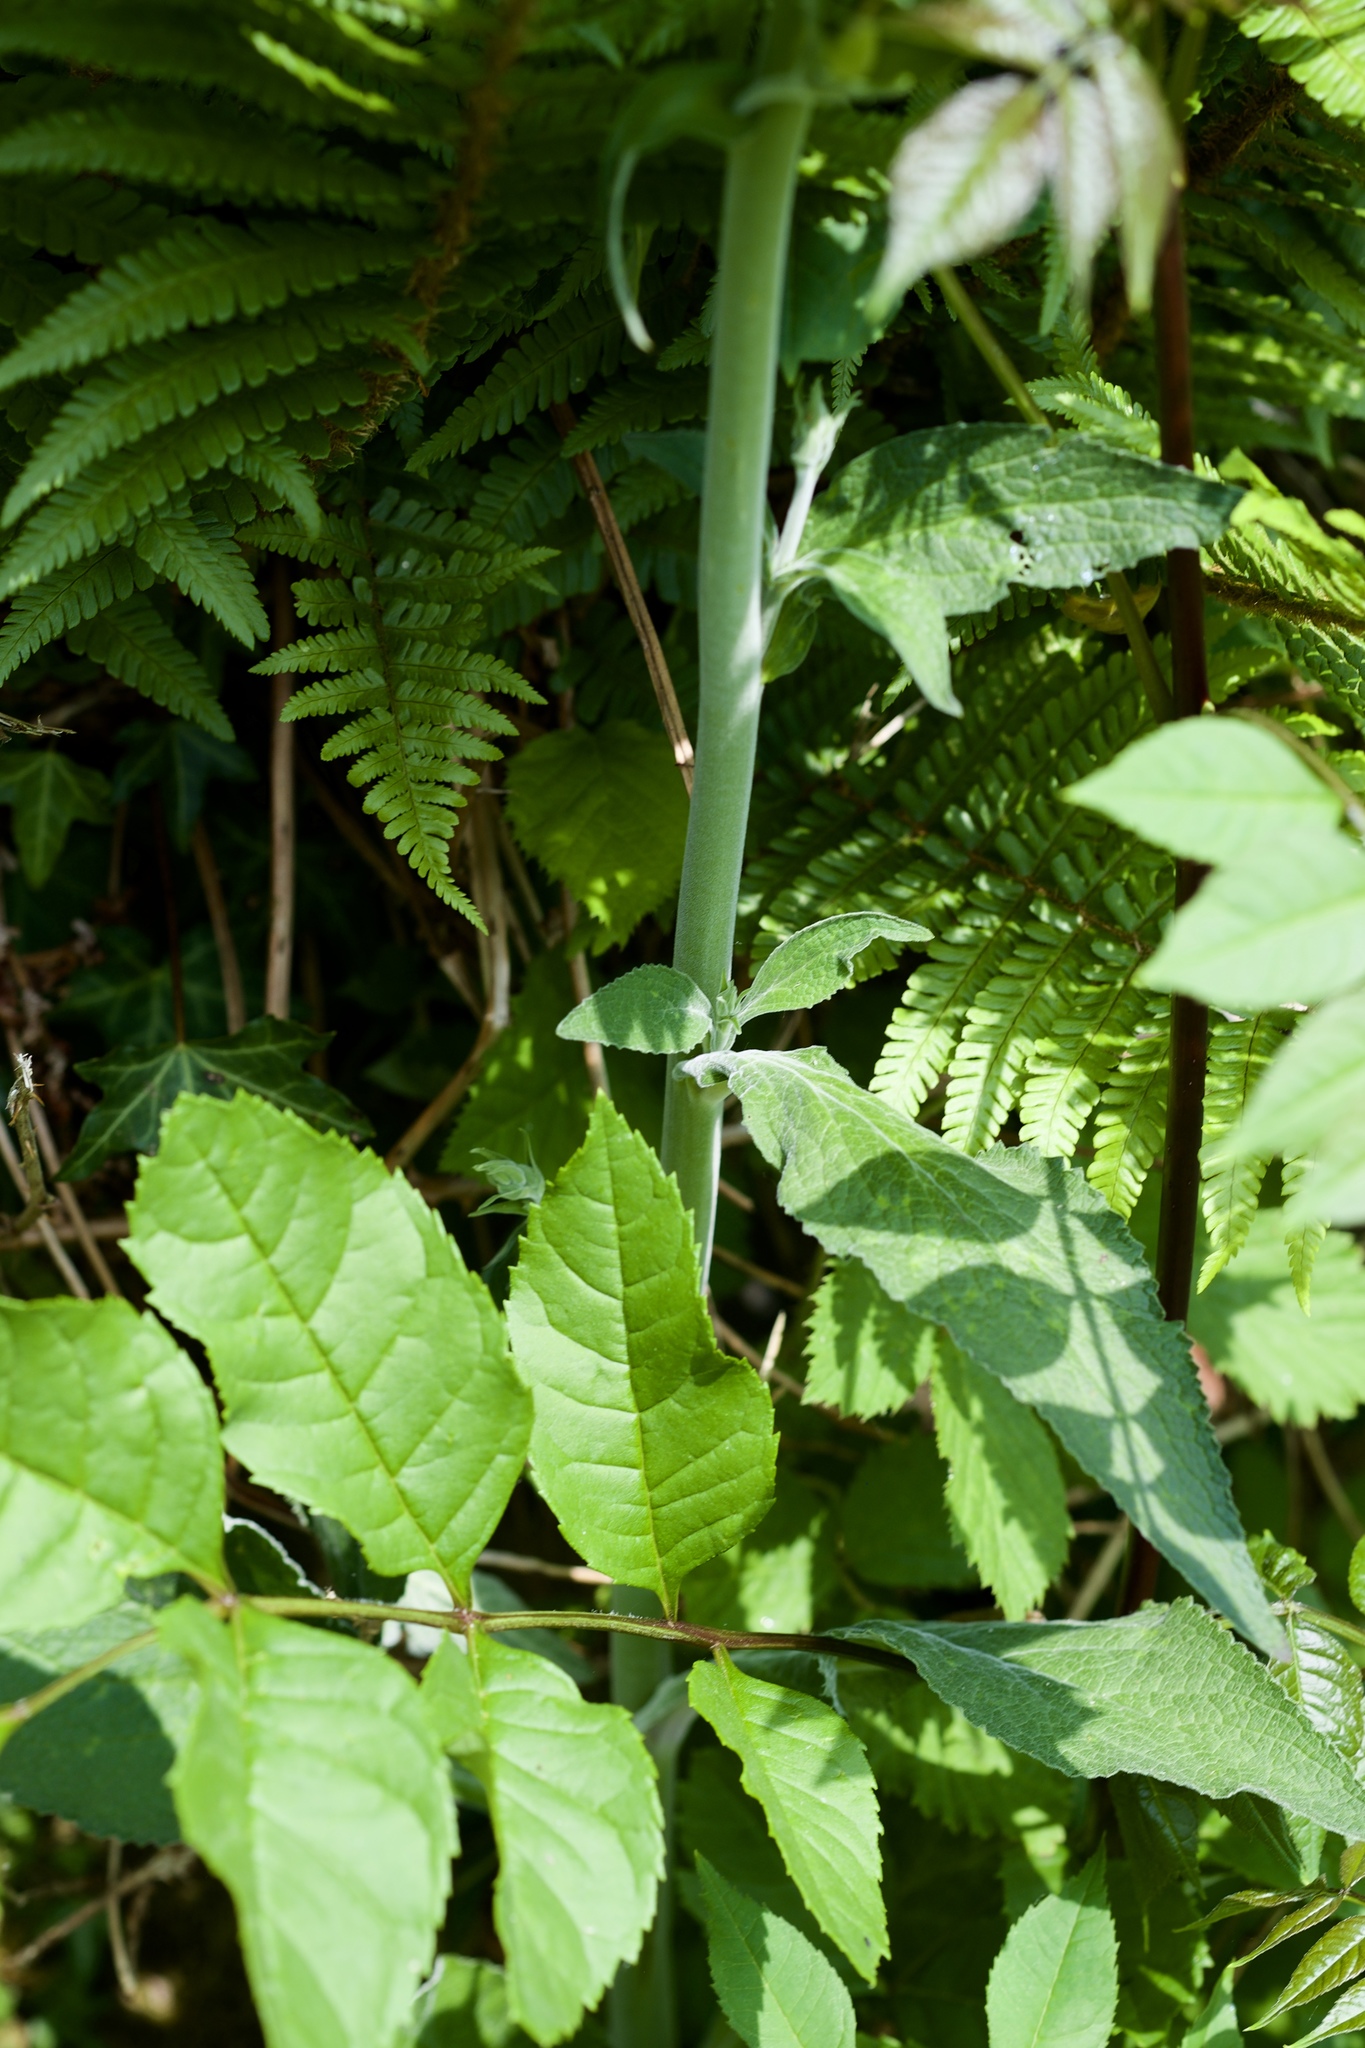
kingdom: Plantae
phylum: Tracheophyta
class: Magnoliopsida
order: Lamiales
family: Plantaginaceae
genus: Digitalis
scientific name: Digitalis purpurea
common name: Foxglove
